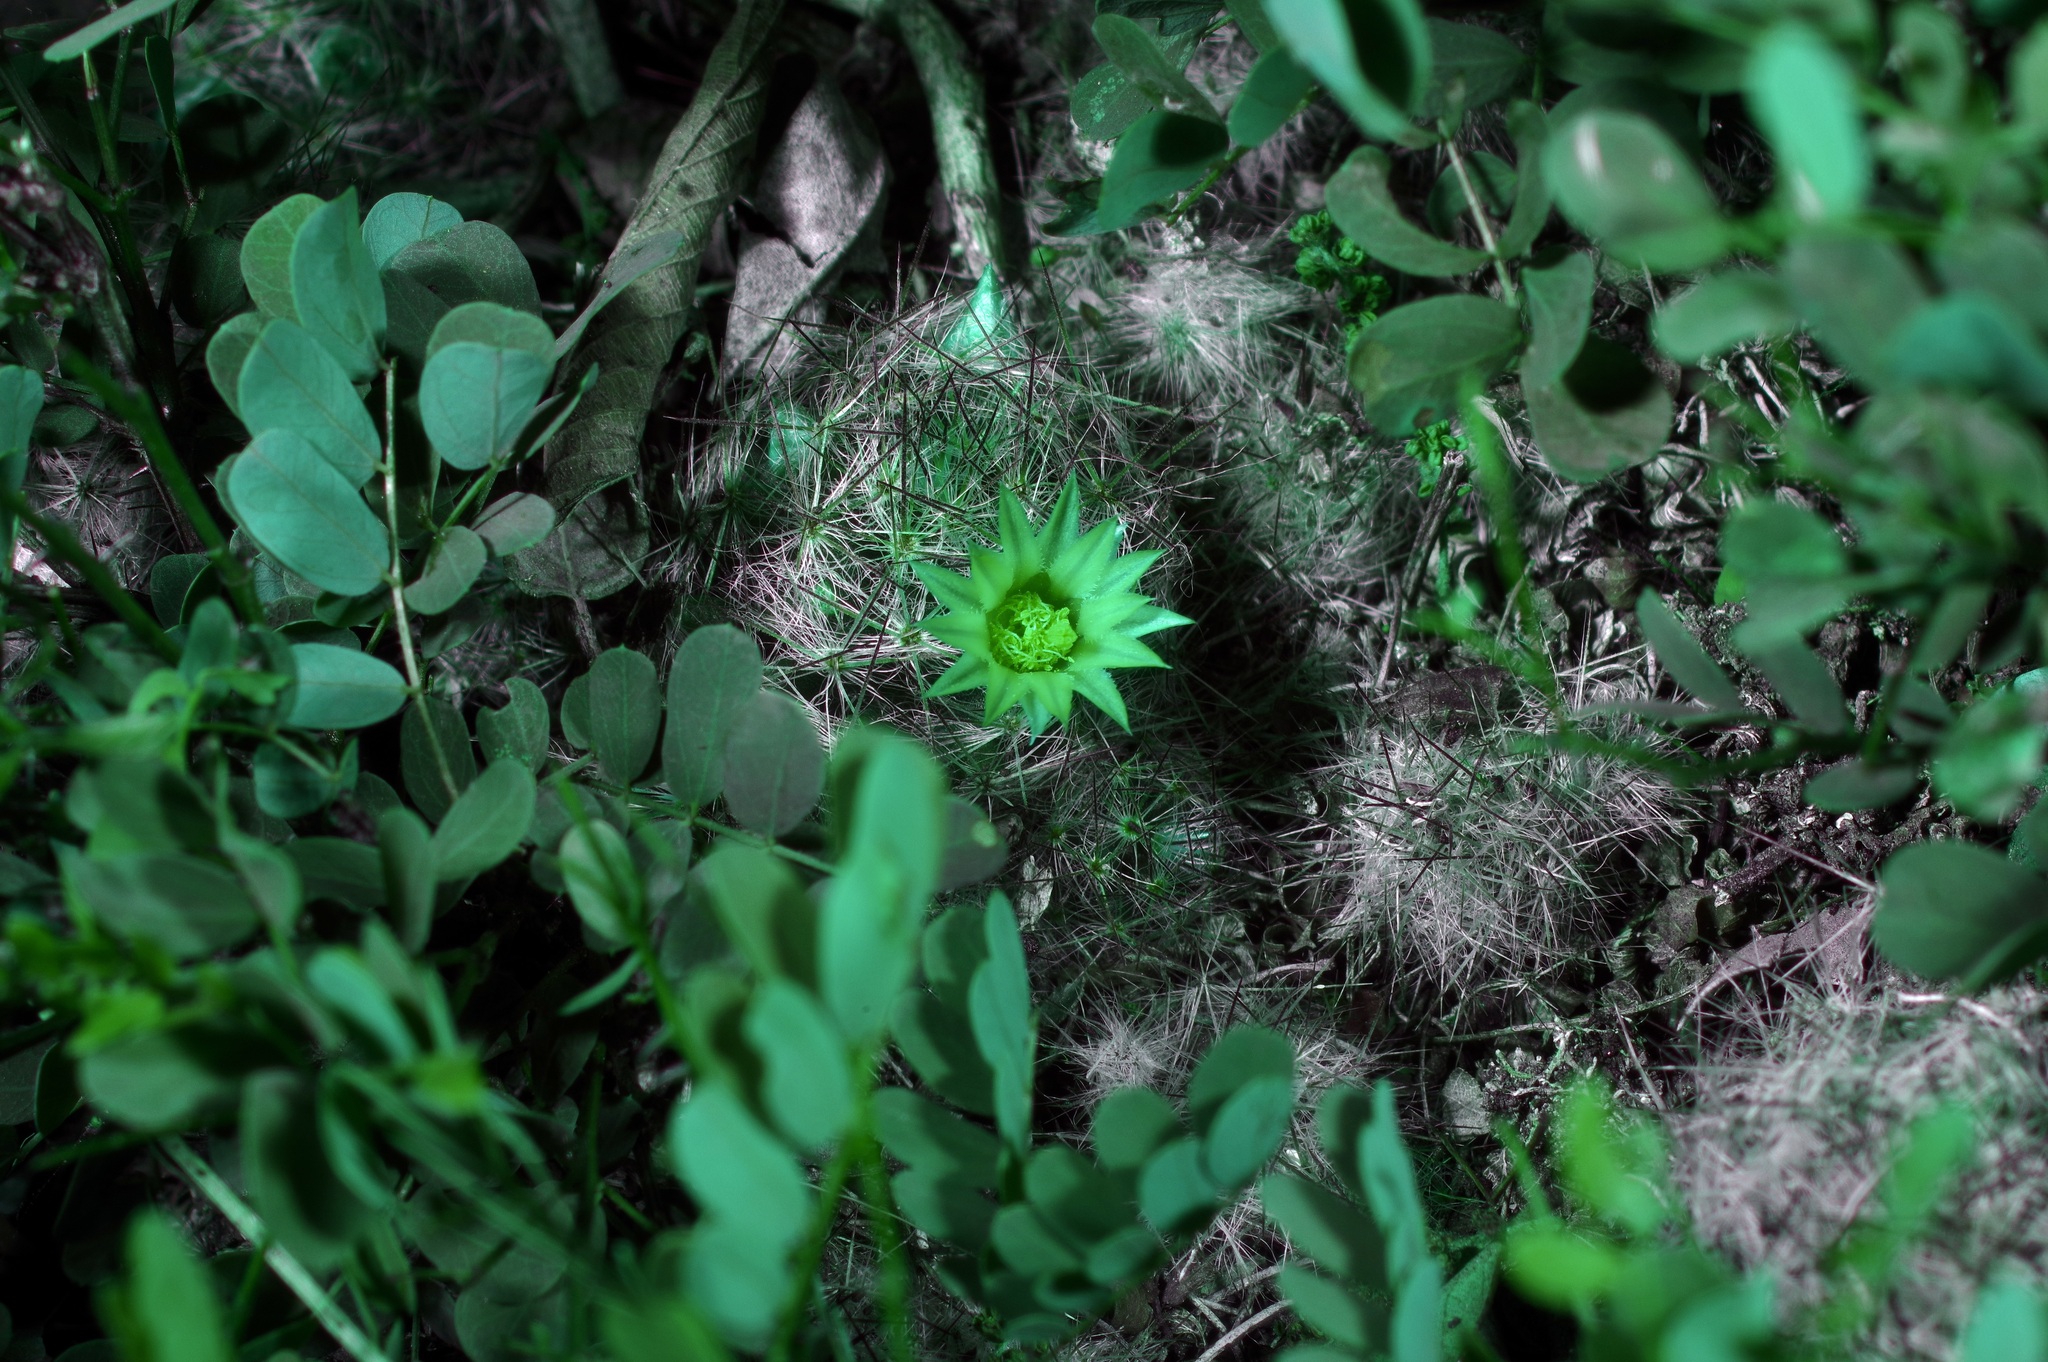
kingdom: Plantae
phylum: Tracheophyta
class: Magnoliopsida
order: Caryophyllales
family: Cactaceae
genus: Mammillaria
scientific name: Mammillaria prolifera
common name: Texas nipple cactus
